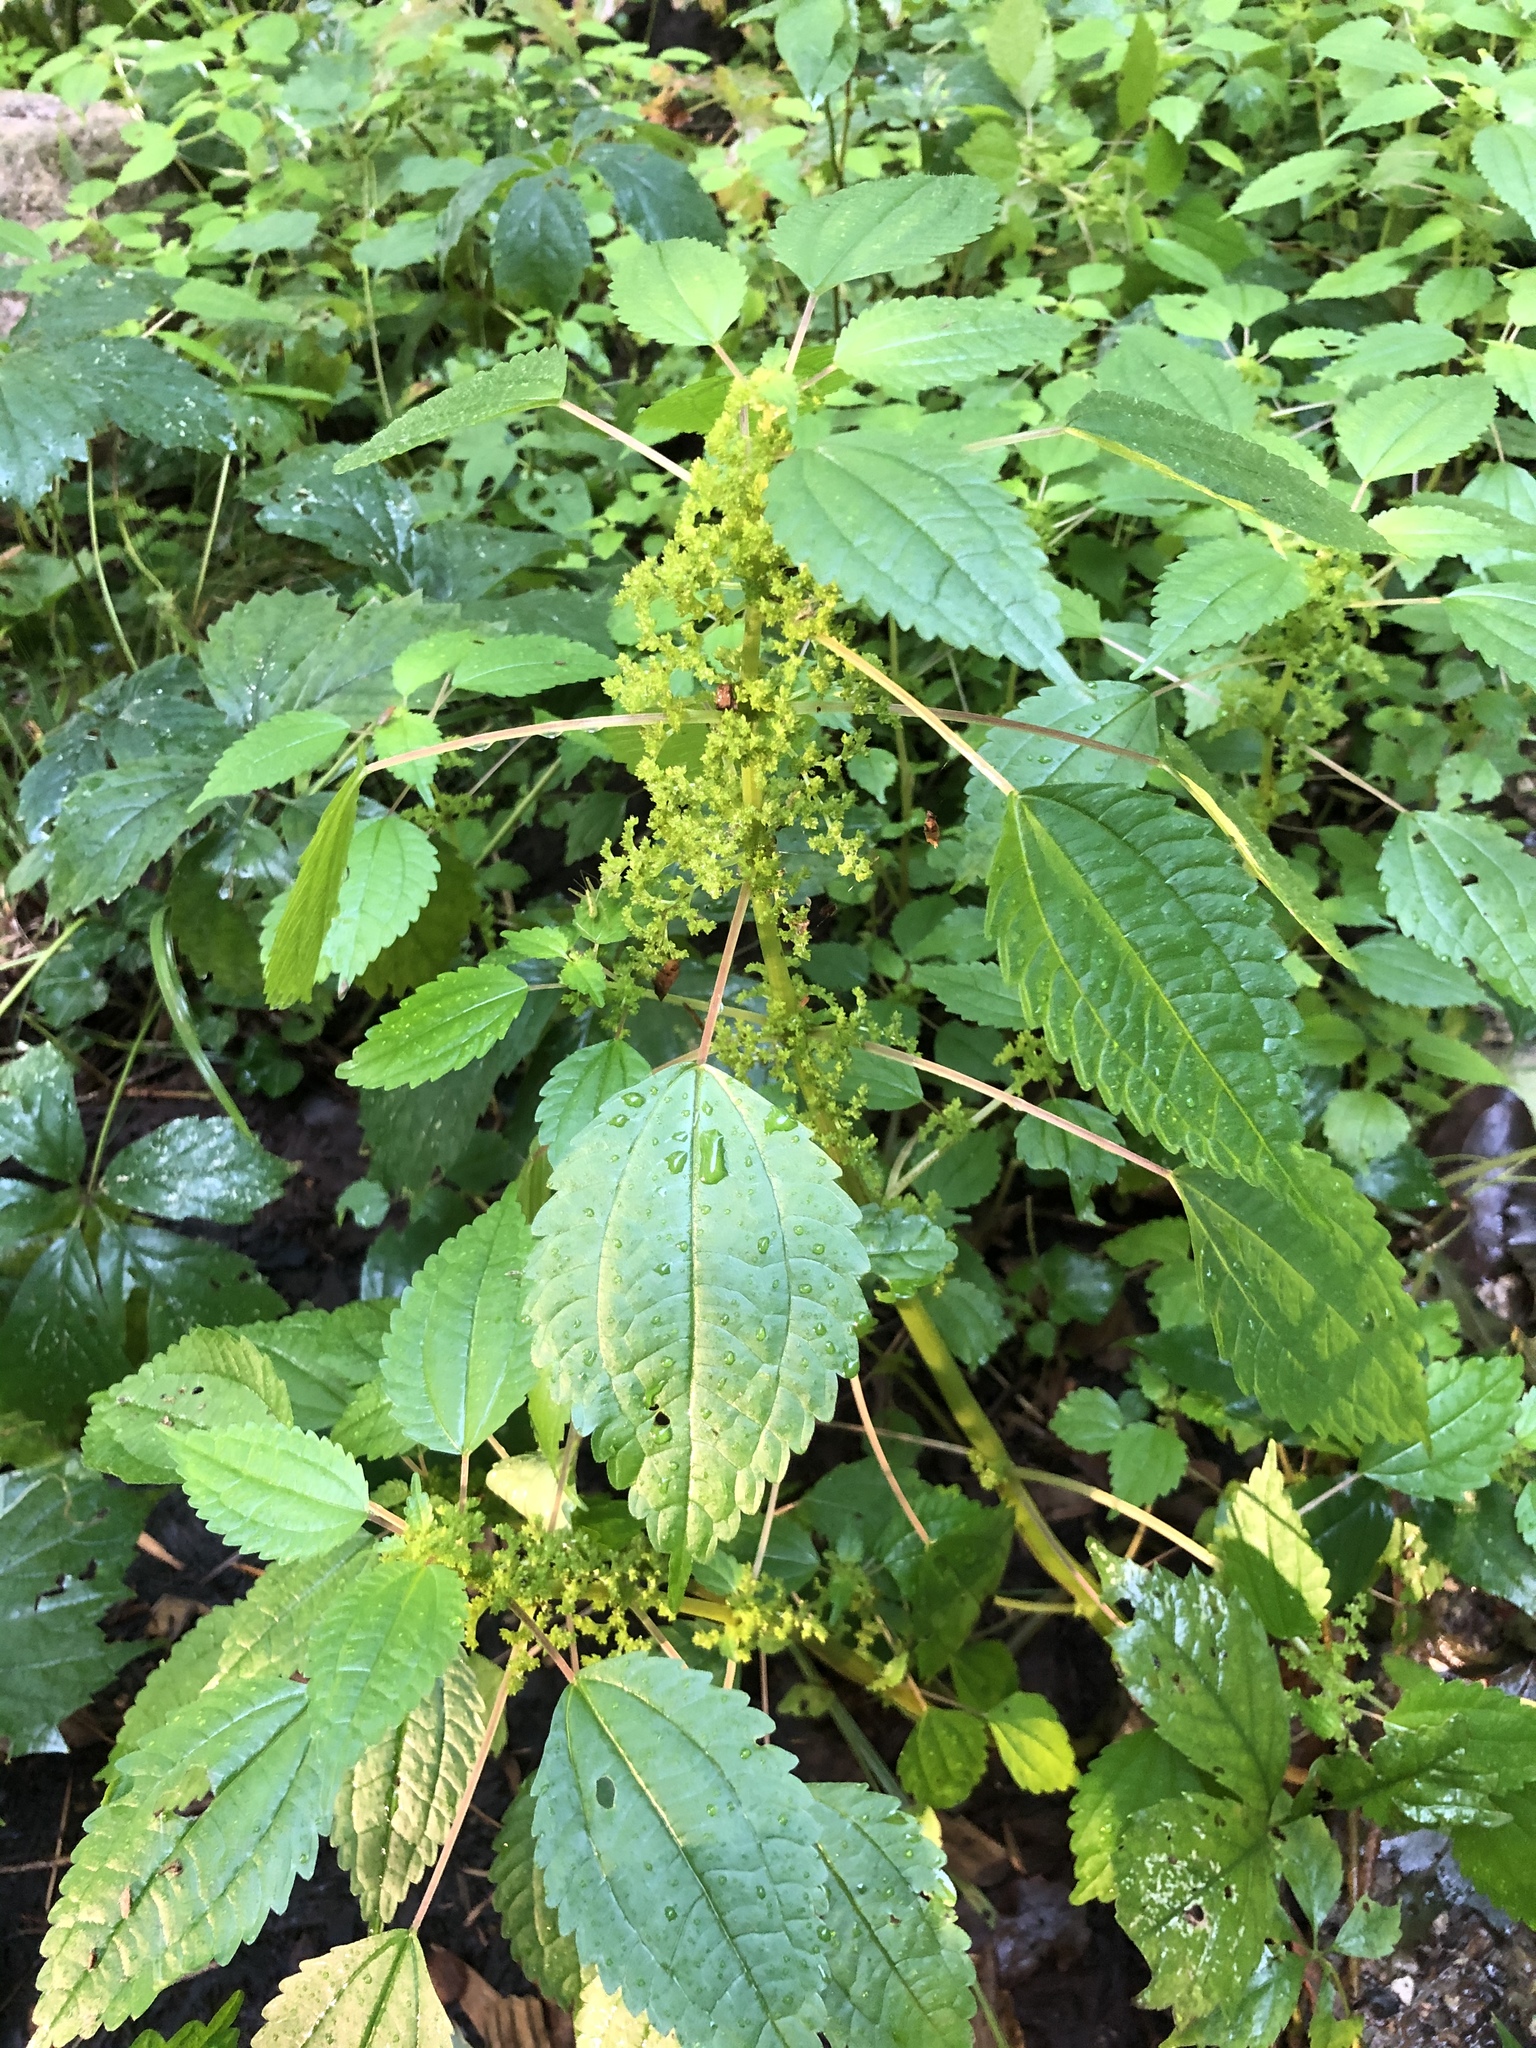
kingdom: Plantae
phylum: Tracheophyta
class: Magnoliopsida
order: Rosales
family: Urticaceae
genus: Pilea
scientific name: Pilea pumila
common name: Clearweed
